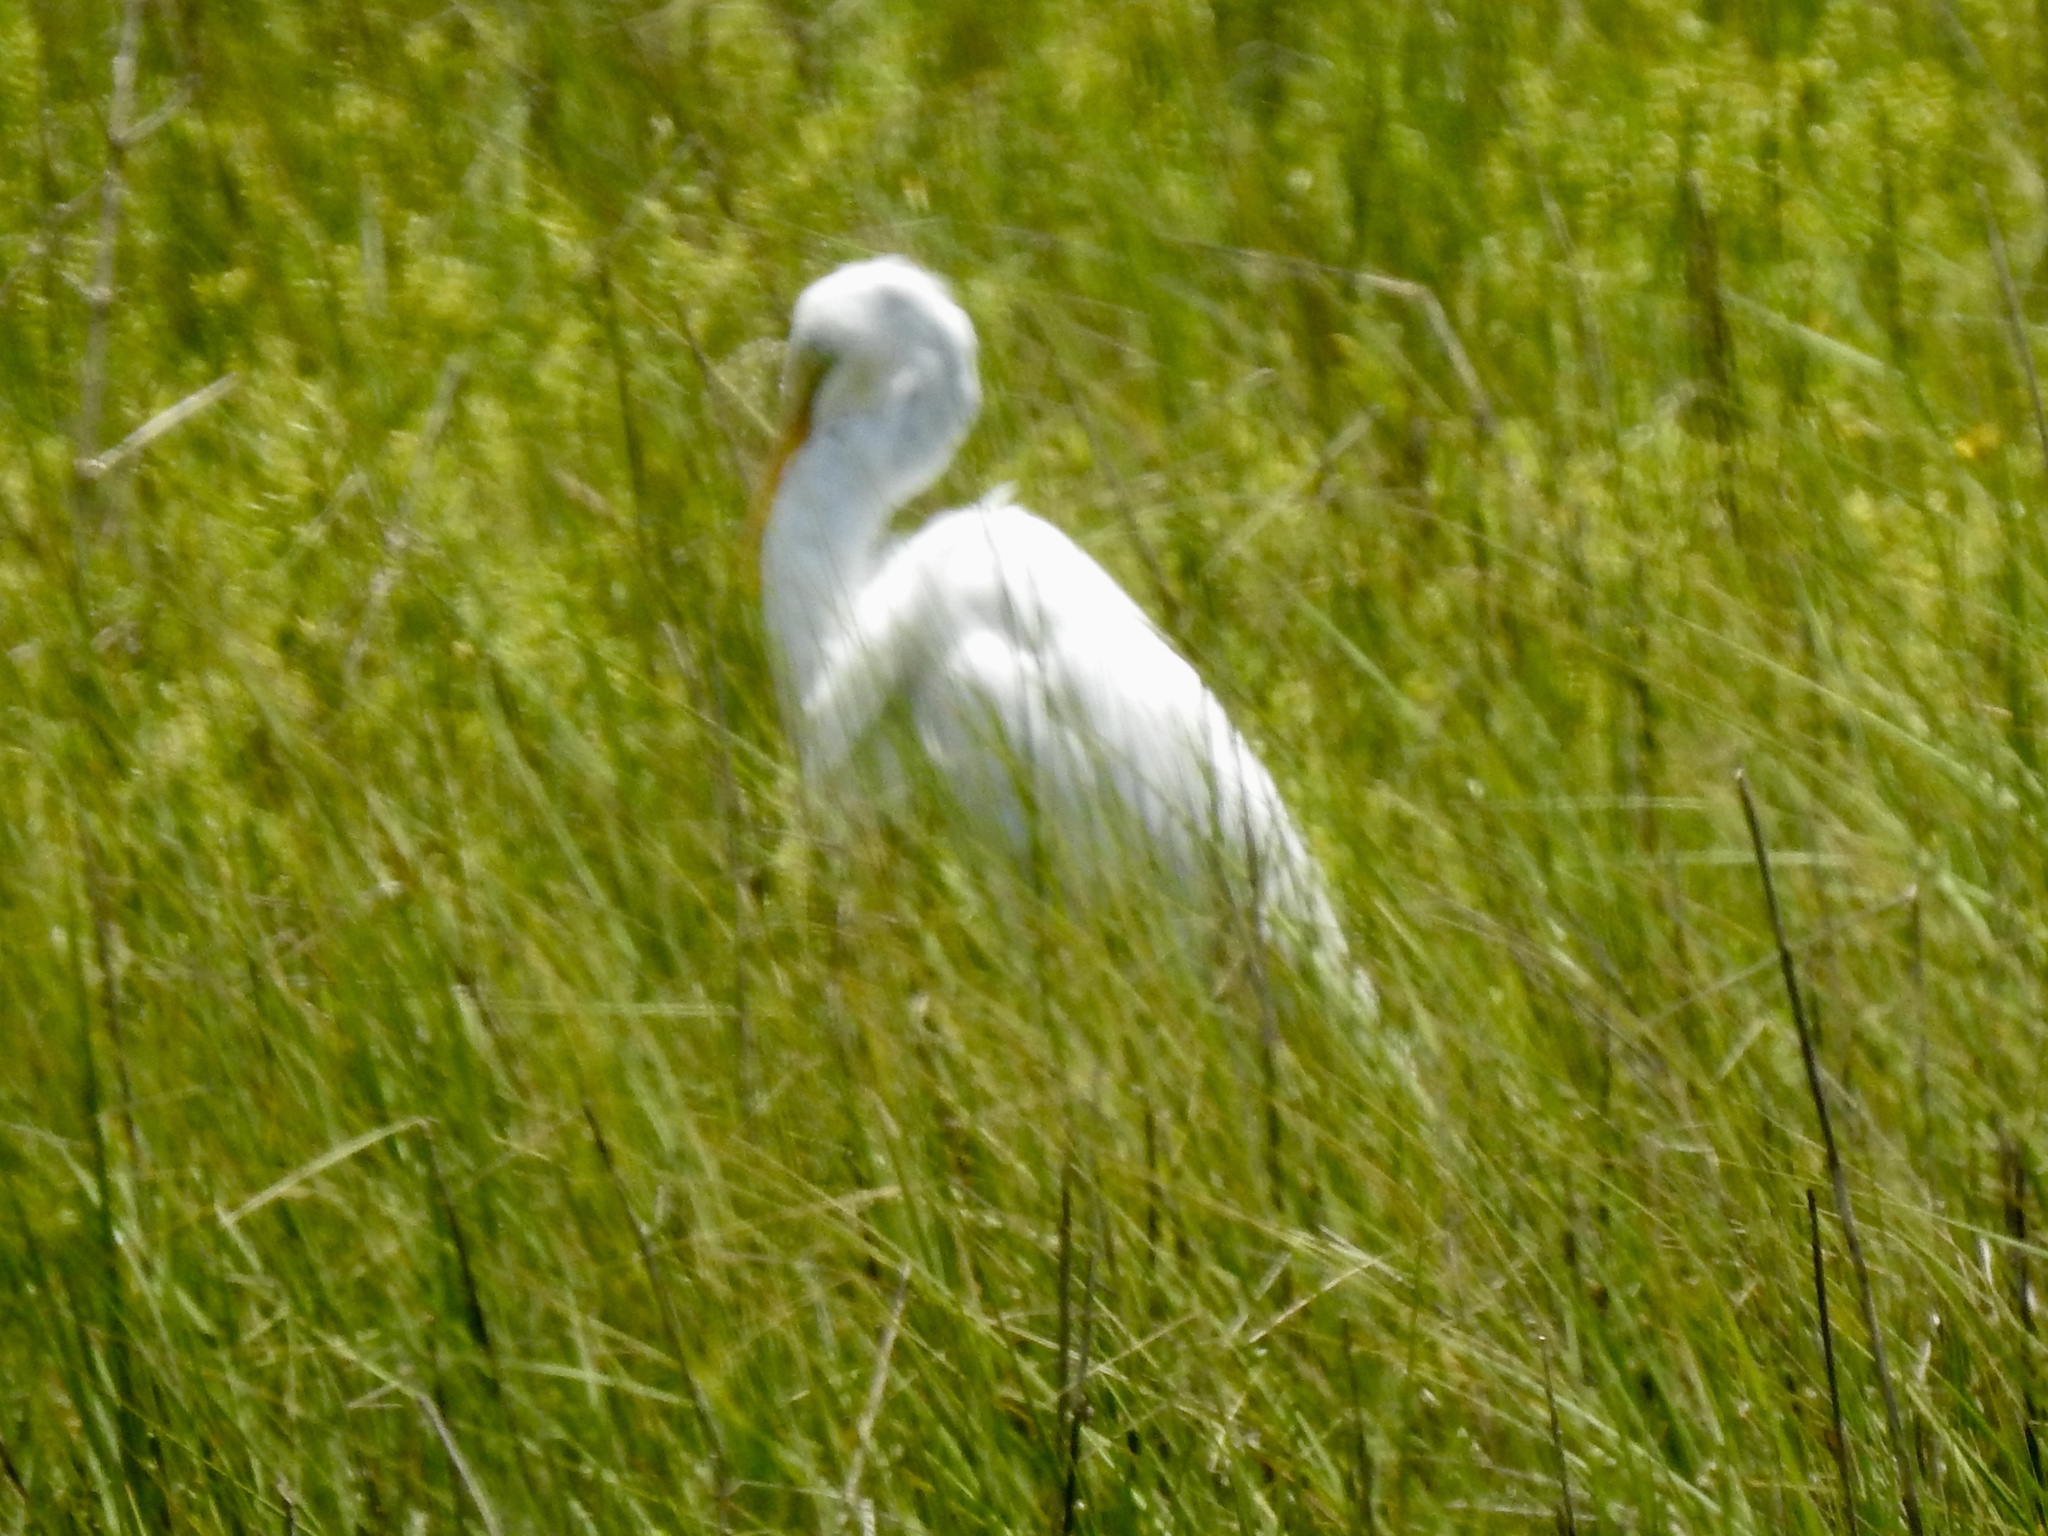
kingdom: Animalia
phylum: Chordata
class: Aves
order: Pelecaniformes
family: Ardeidae
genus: Ardea
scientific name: Ardea alba
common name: Great egret
